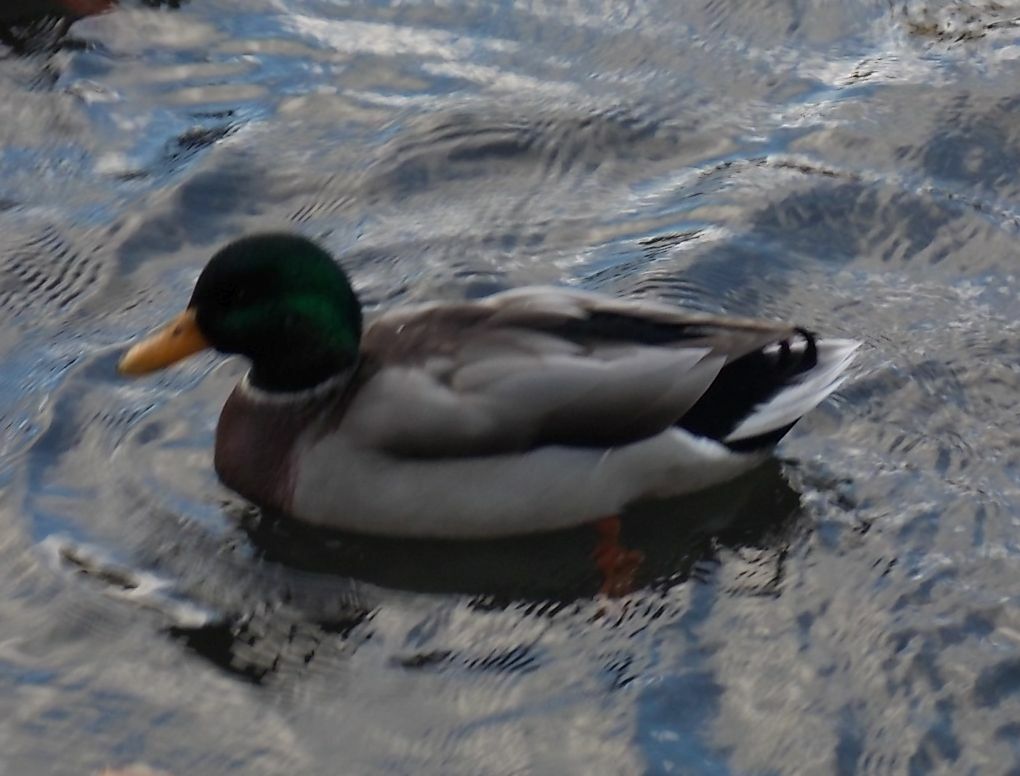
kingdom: Animalia
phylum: Chordata
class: Aves
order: Anseriformes
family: Anatidae
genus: Anas
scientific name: Anas platyrhynchos
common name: Mallard
